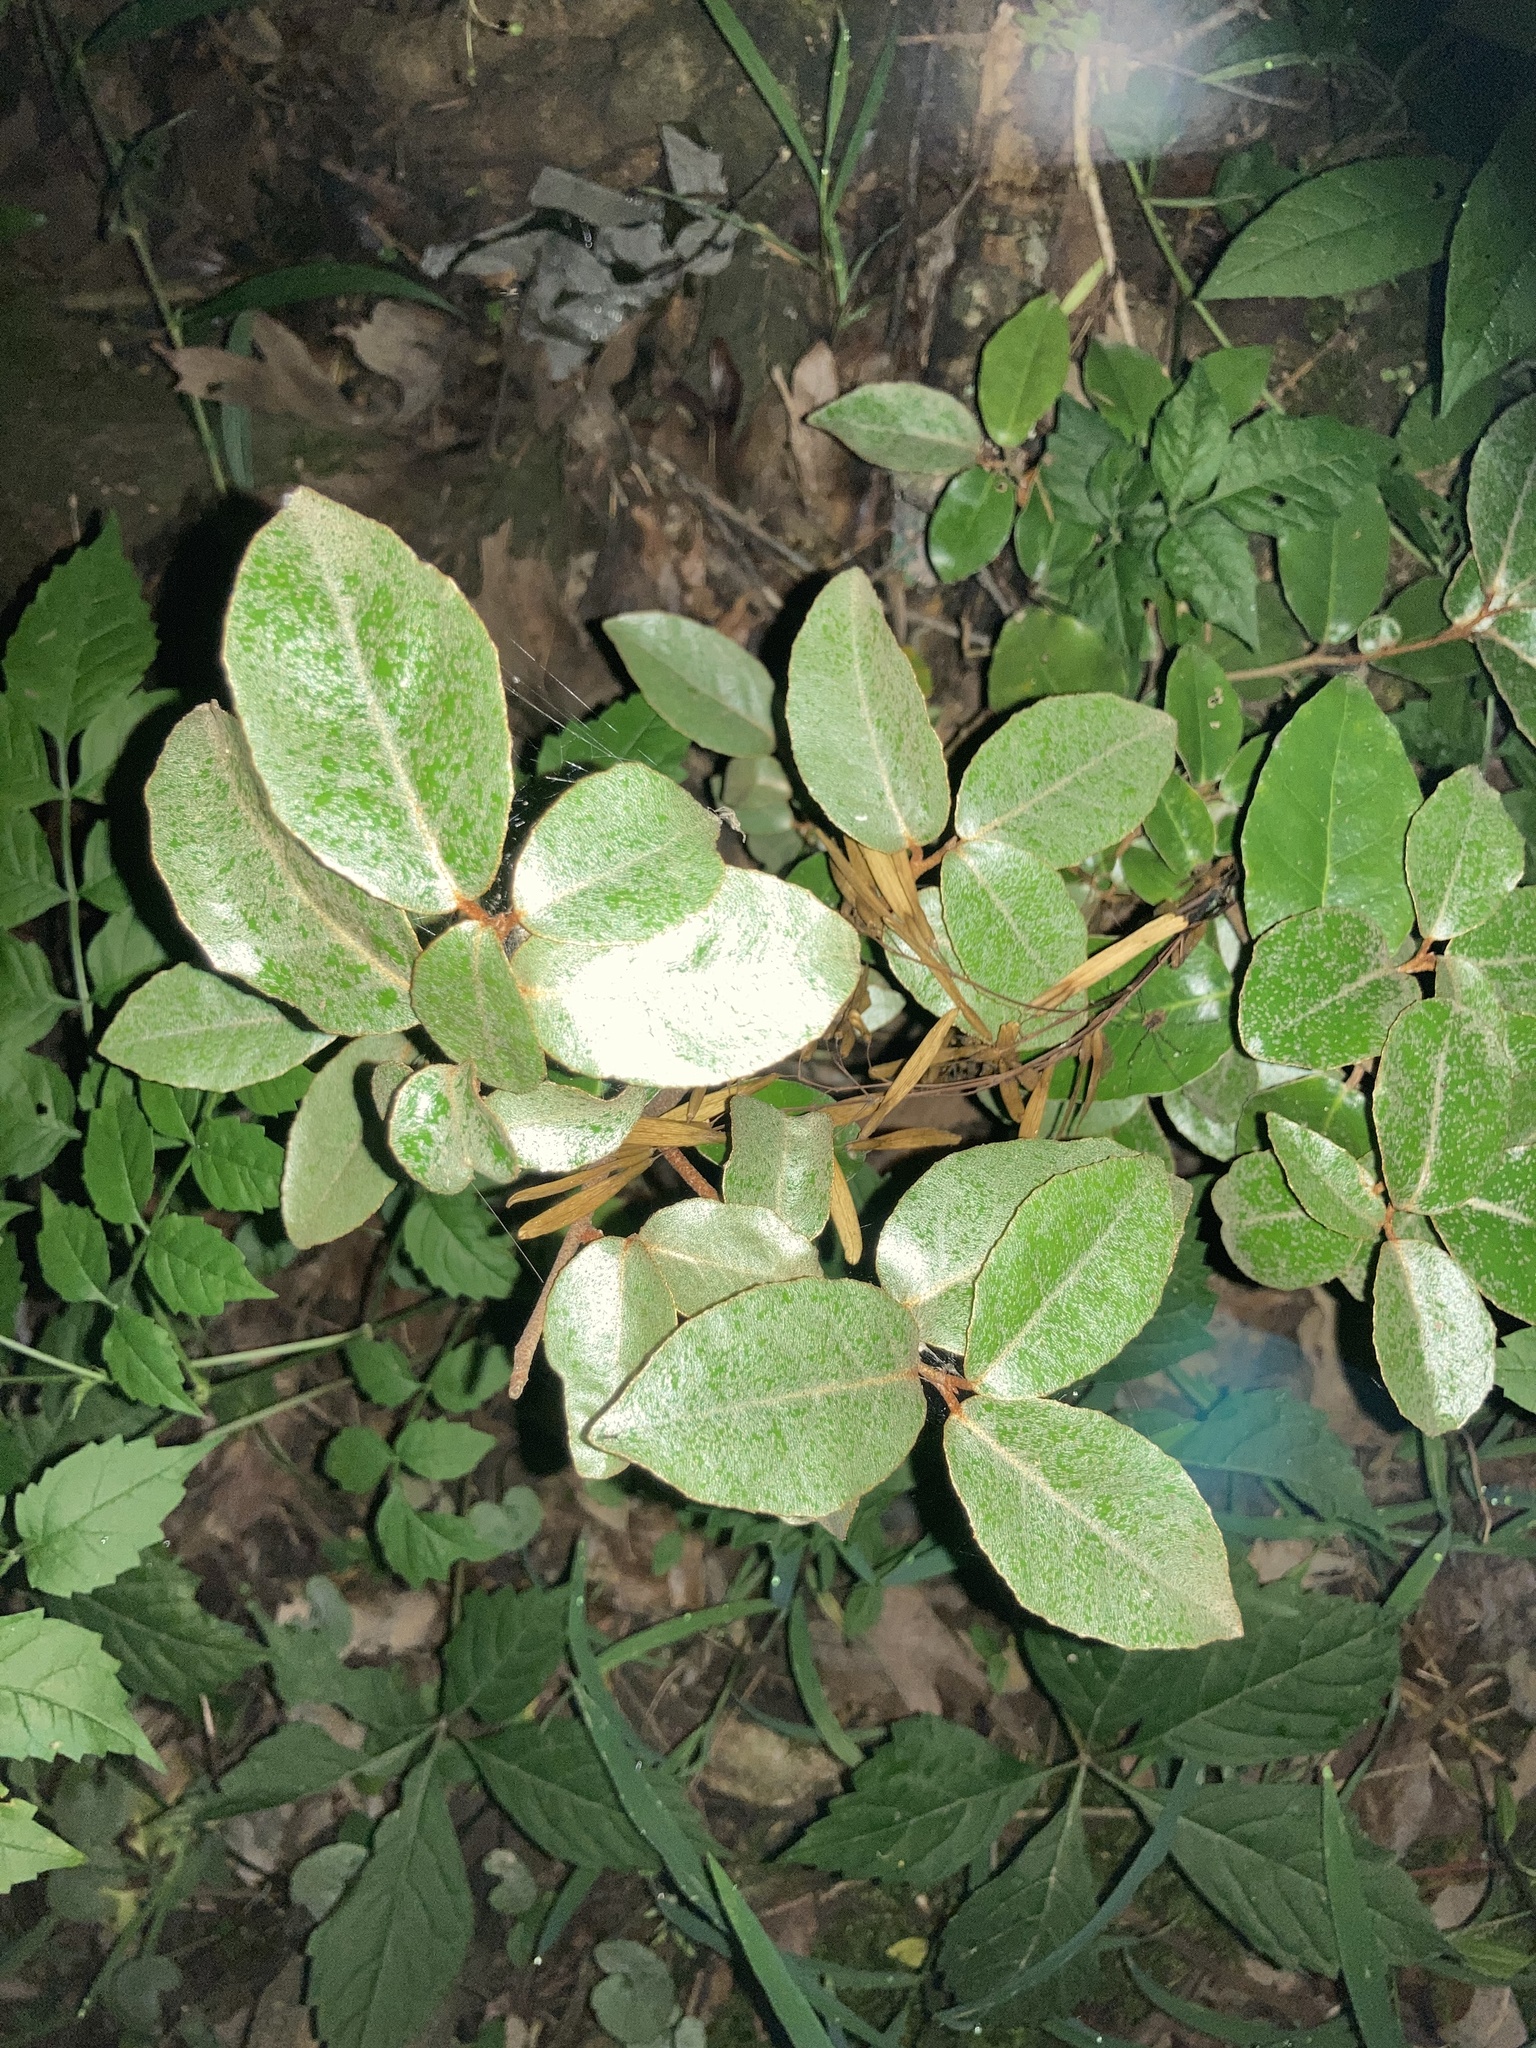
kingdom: Plantae
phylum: Tracheophyta
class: Magnoliopsida
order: Rosales
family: Elaeagnaceae
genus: Elaeagnus
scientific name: Elaeagnus pungens
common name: Spiny oleaster
